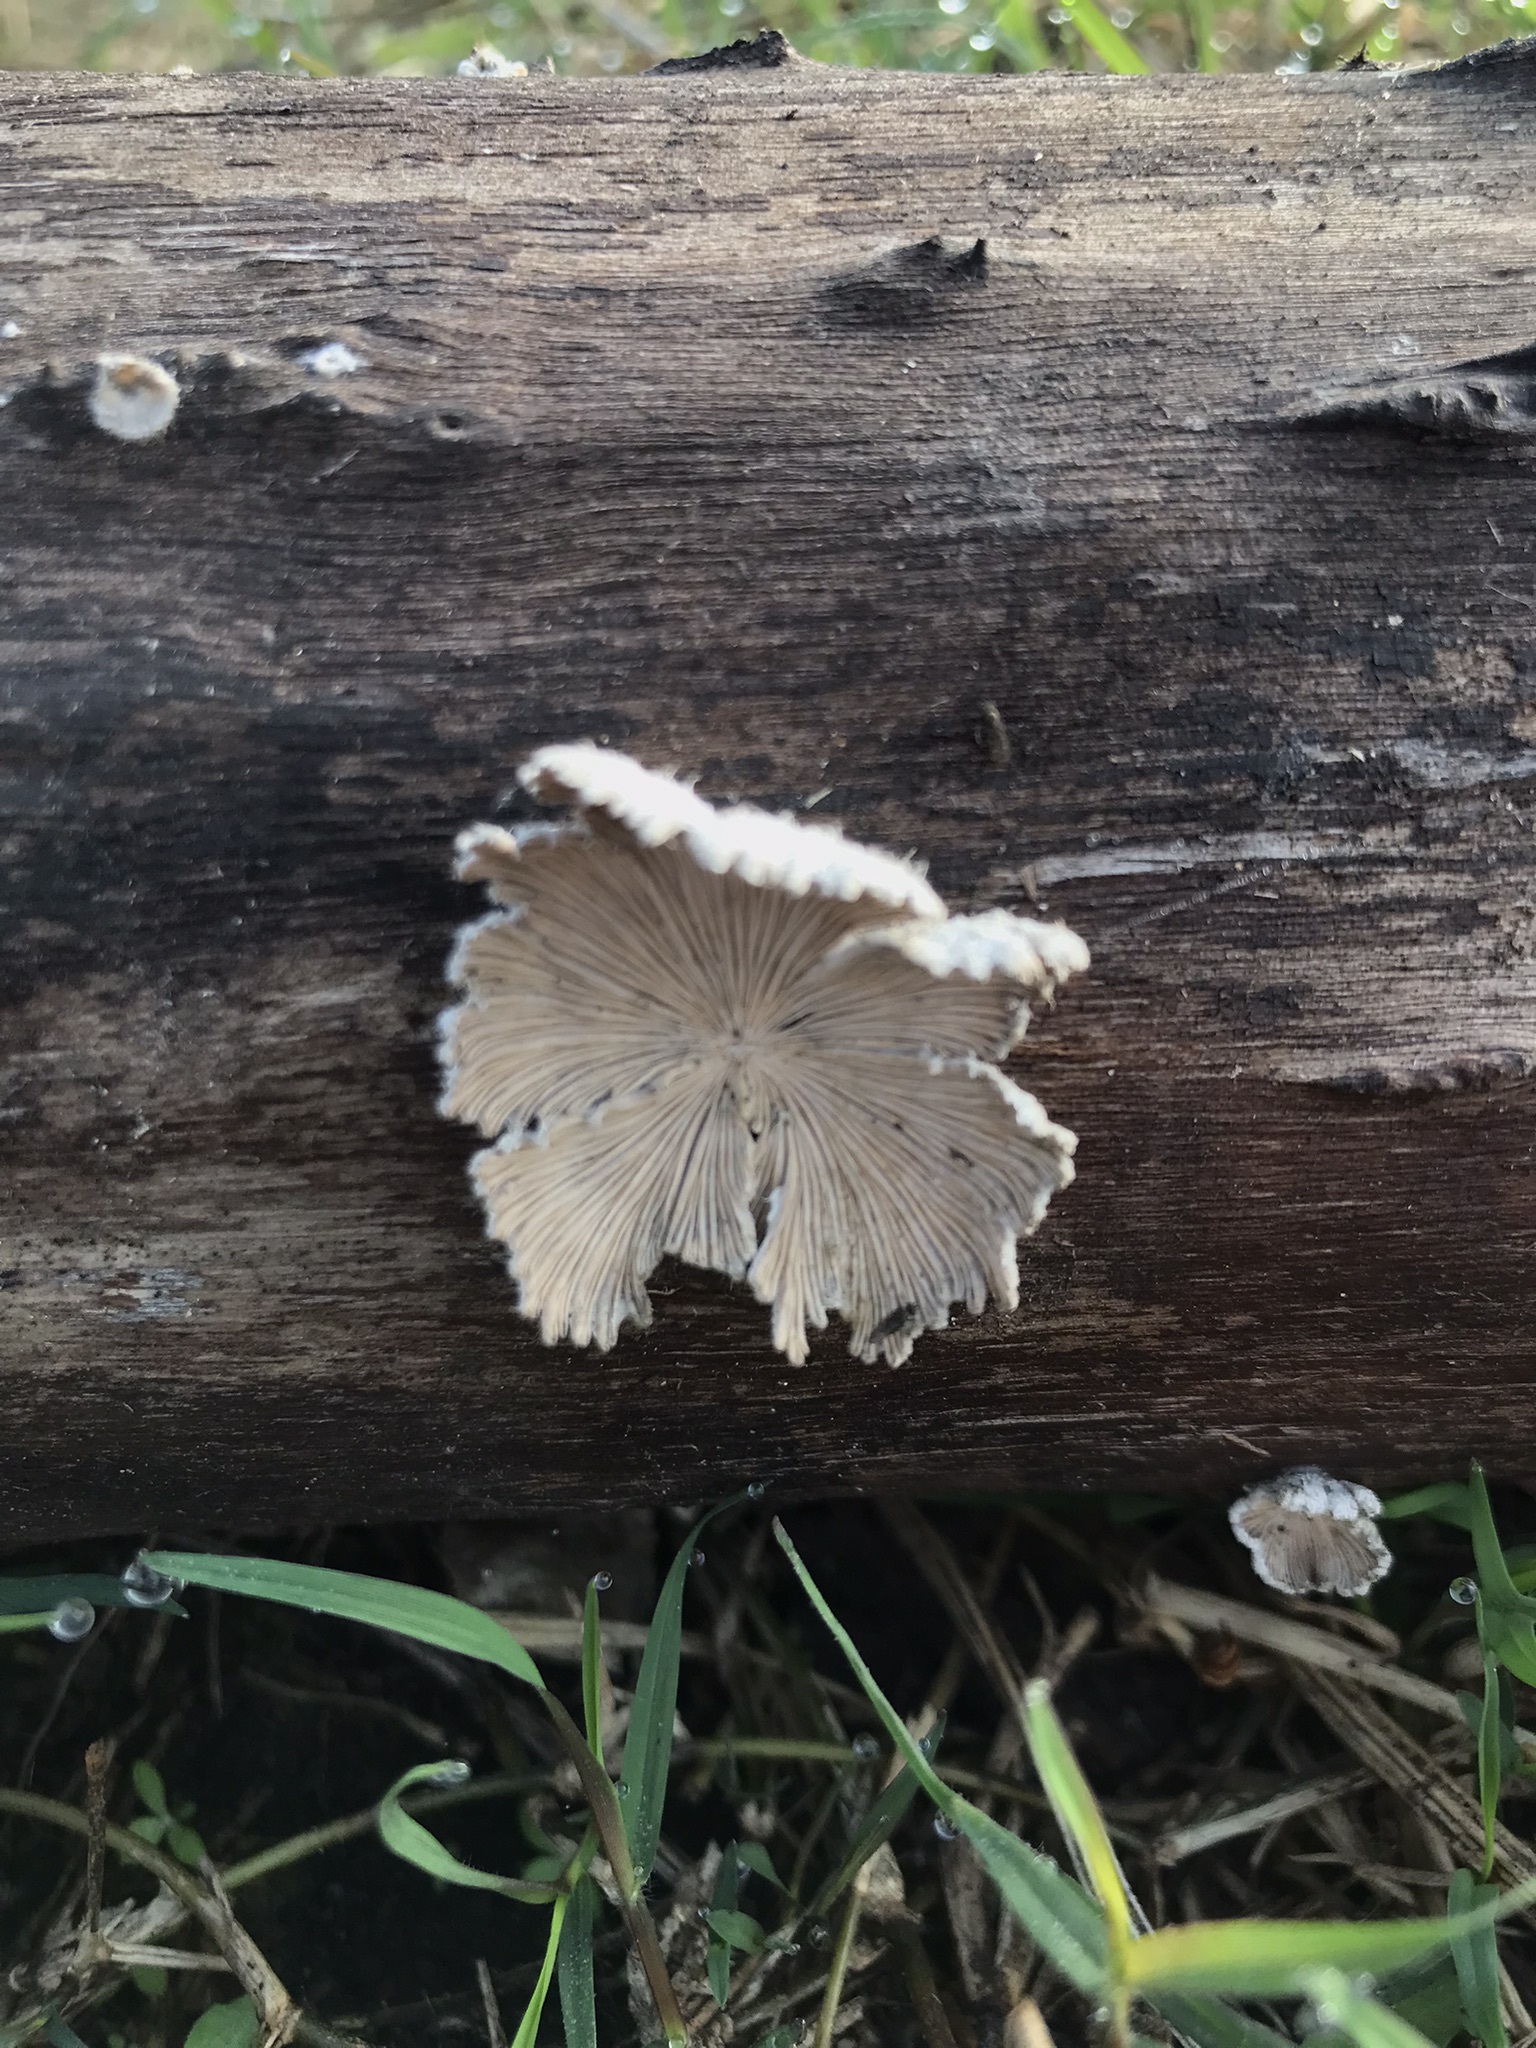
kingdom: Fungi
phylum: Basidiomycota
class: Agaricomycetes
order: Agaricales
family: Schizophyllaceae
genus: Schizophyllum
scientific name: Schizophyllum commune
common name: Common porecrust
